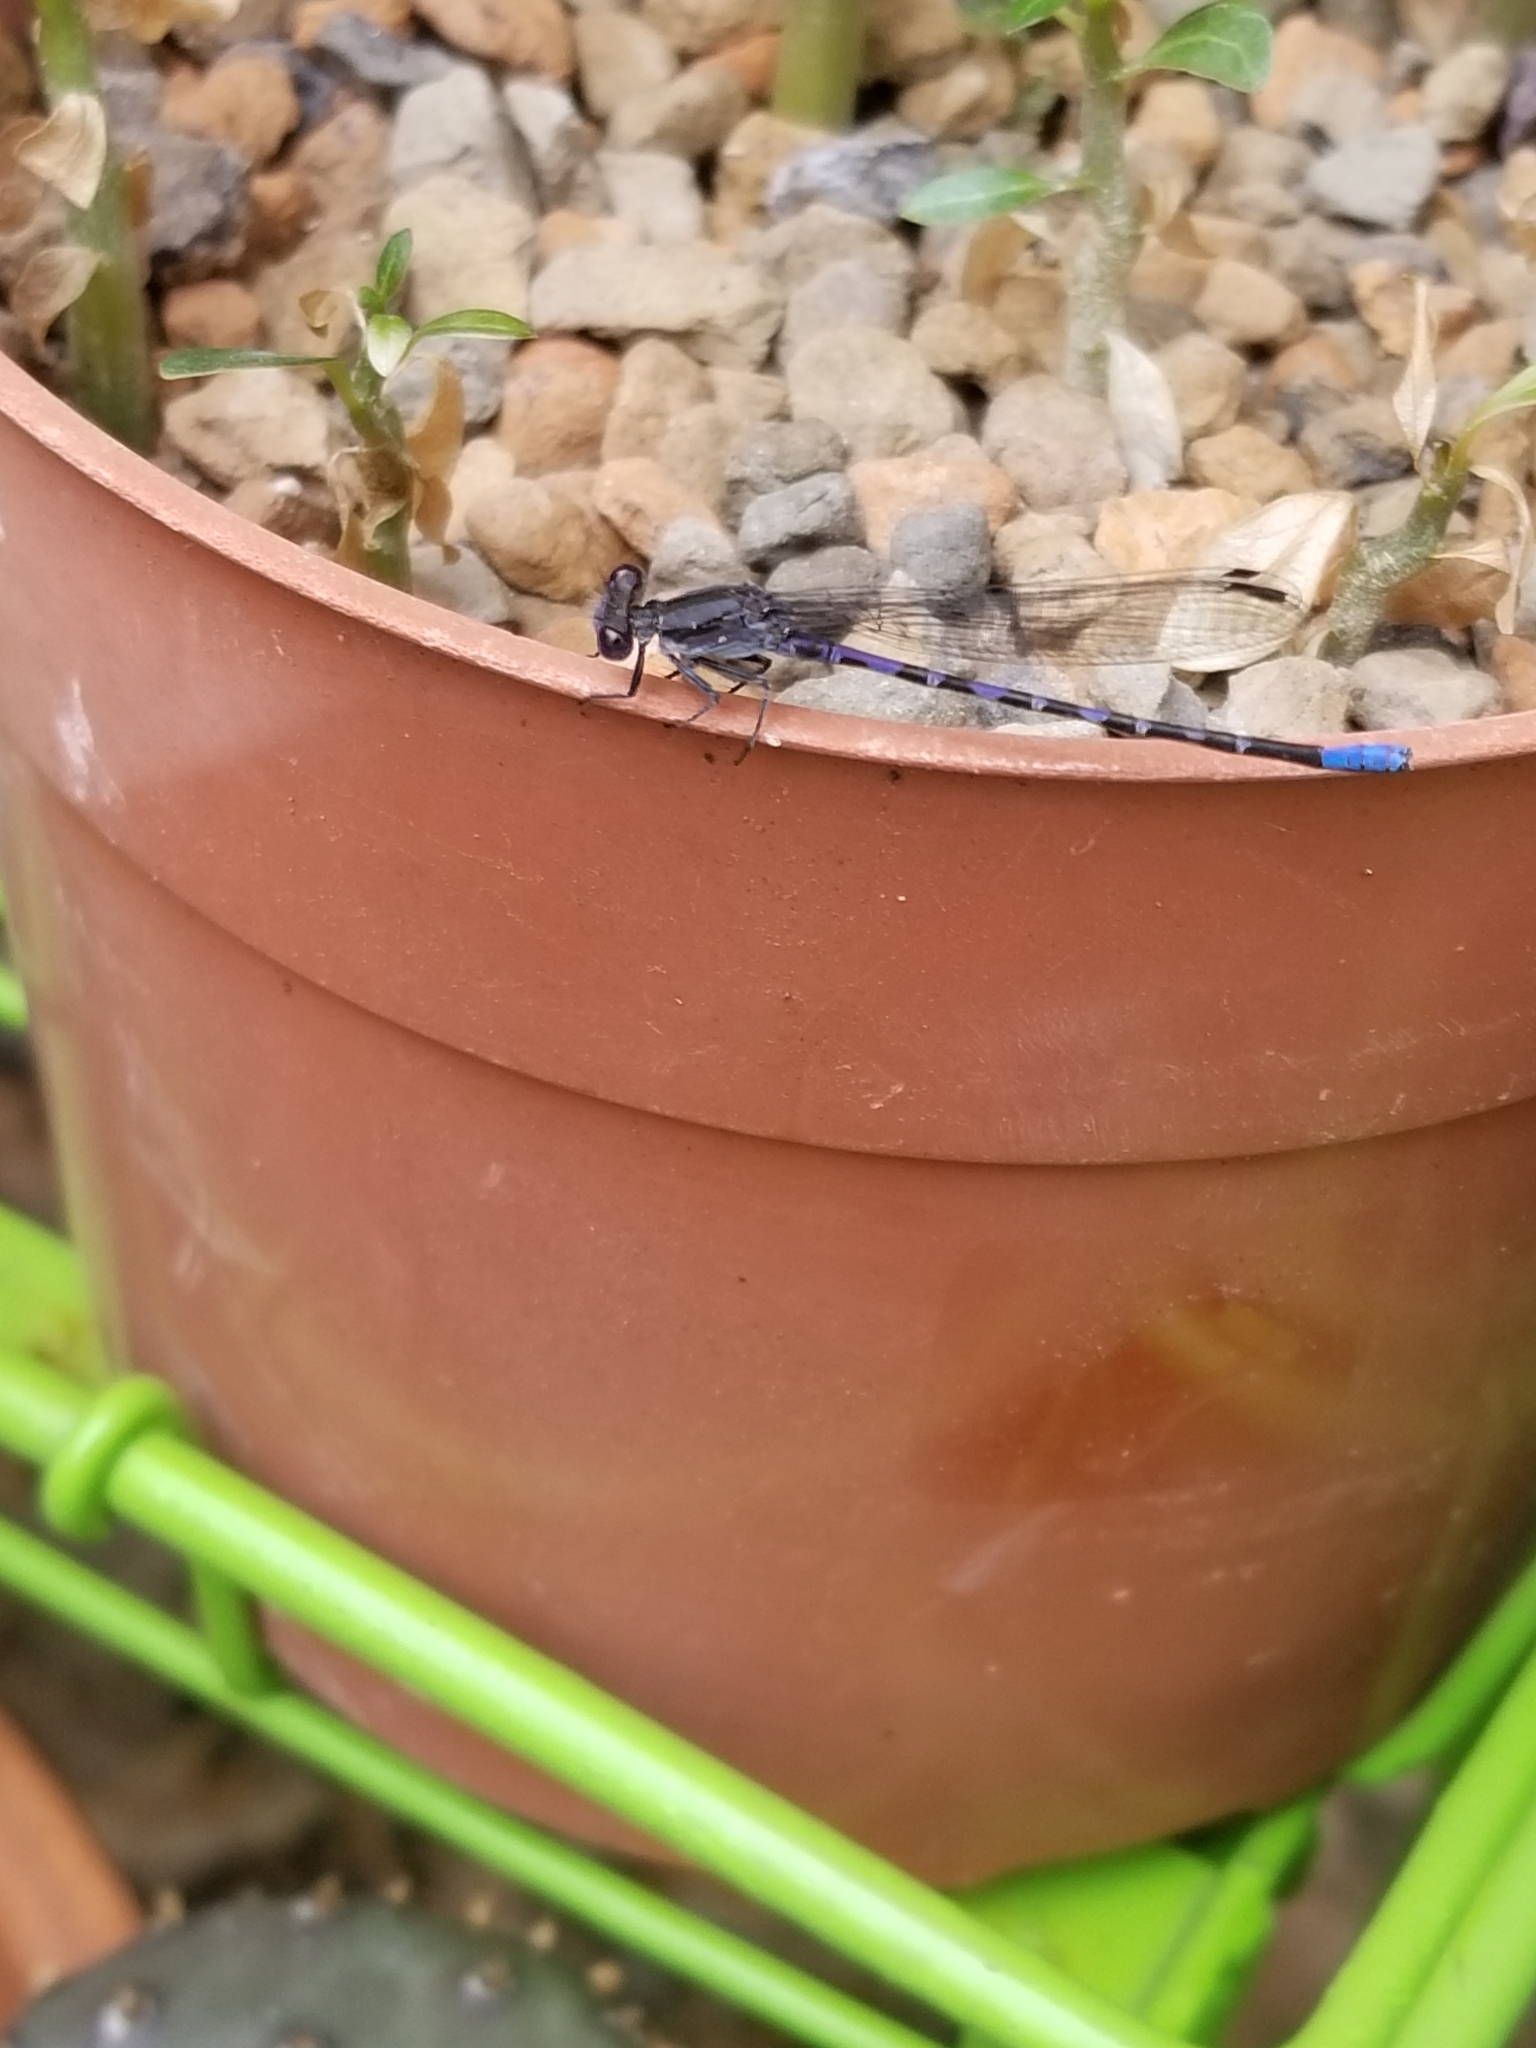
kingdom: Animalia
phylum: Arthropoda
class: Insecta
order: Odonata
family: Coenagrionidae
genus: Argia
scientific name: Argia immunda
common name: Kiowa dancer
